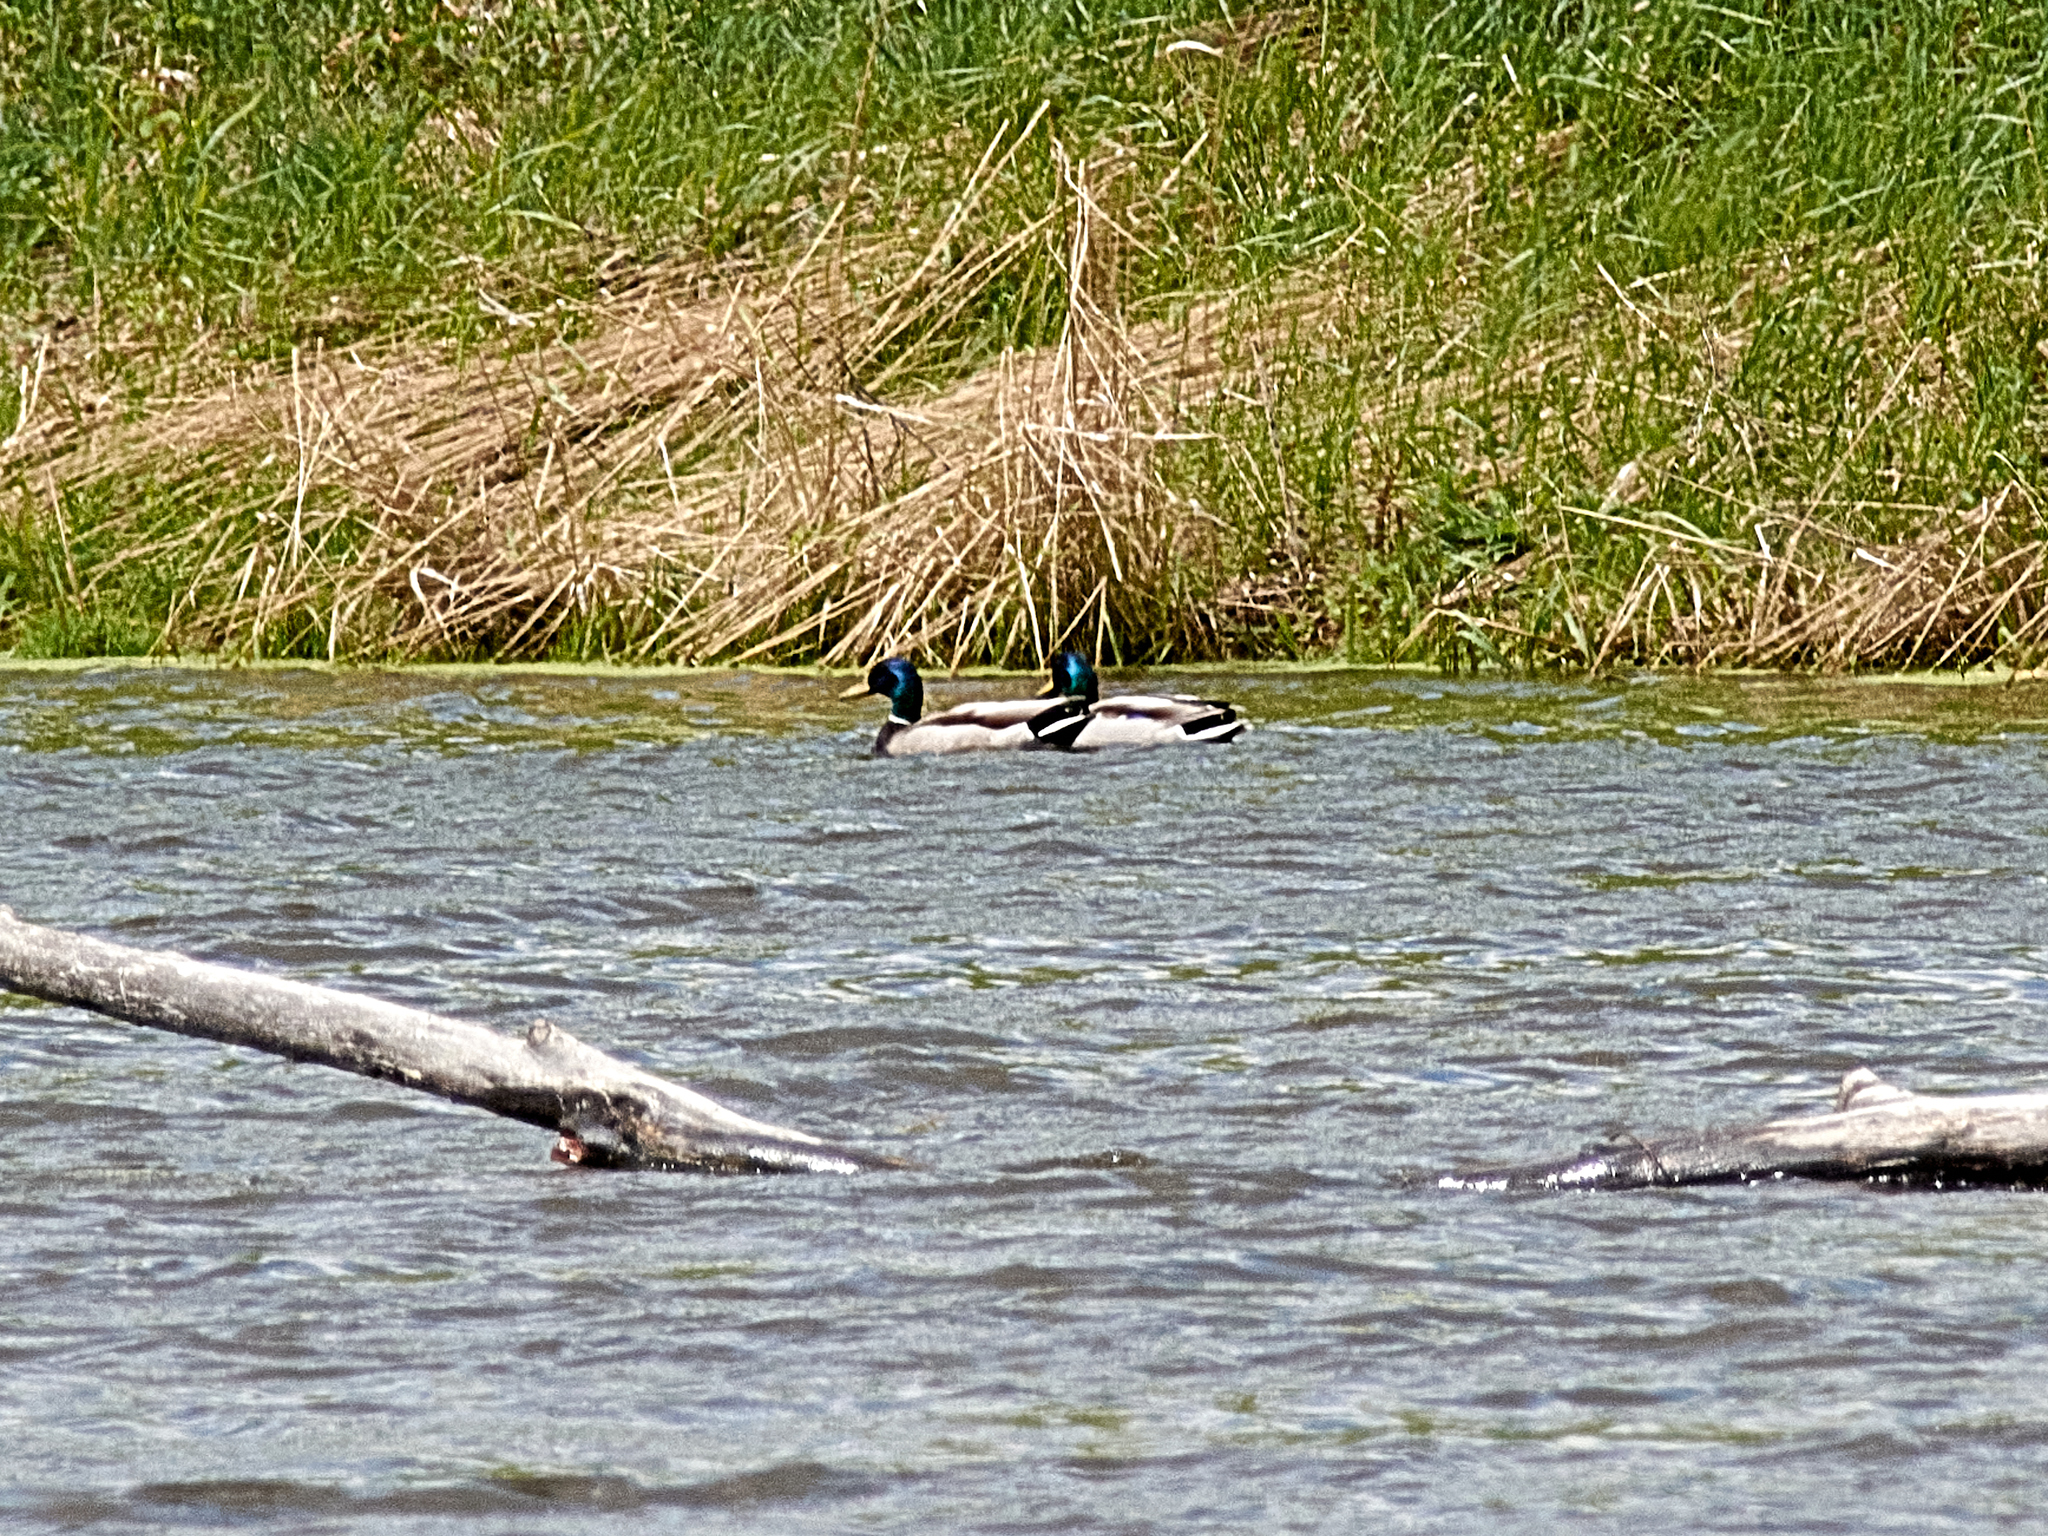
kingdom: Animalia
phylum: Chordata
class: Aves
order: Anseriformes
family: Anatidae
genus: Anas
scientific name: Anas platyrhynchos
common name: Mallard
